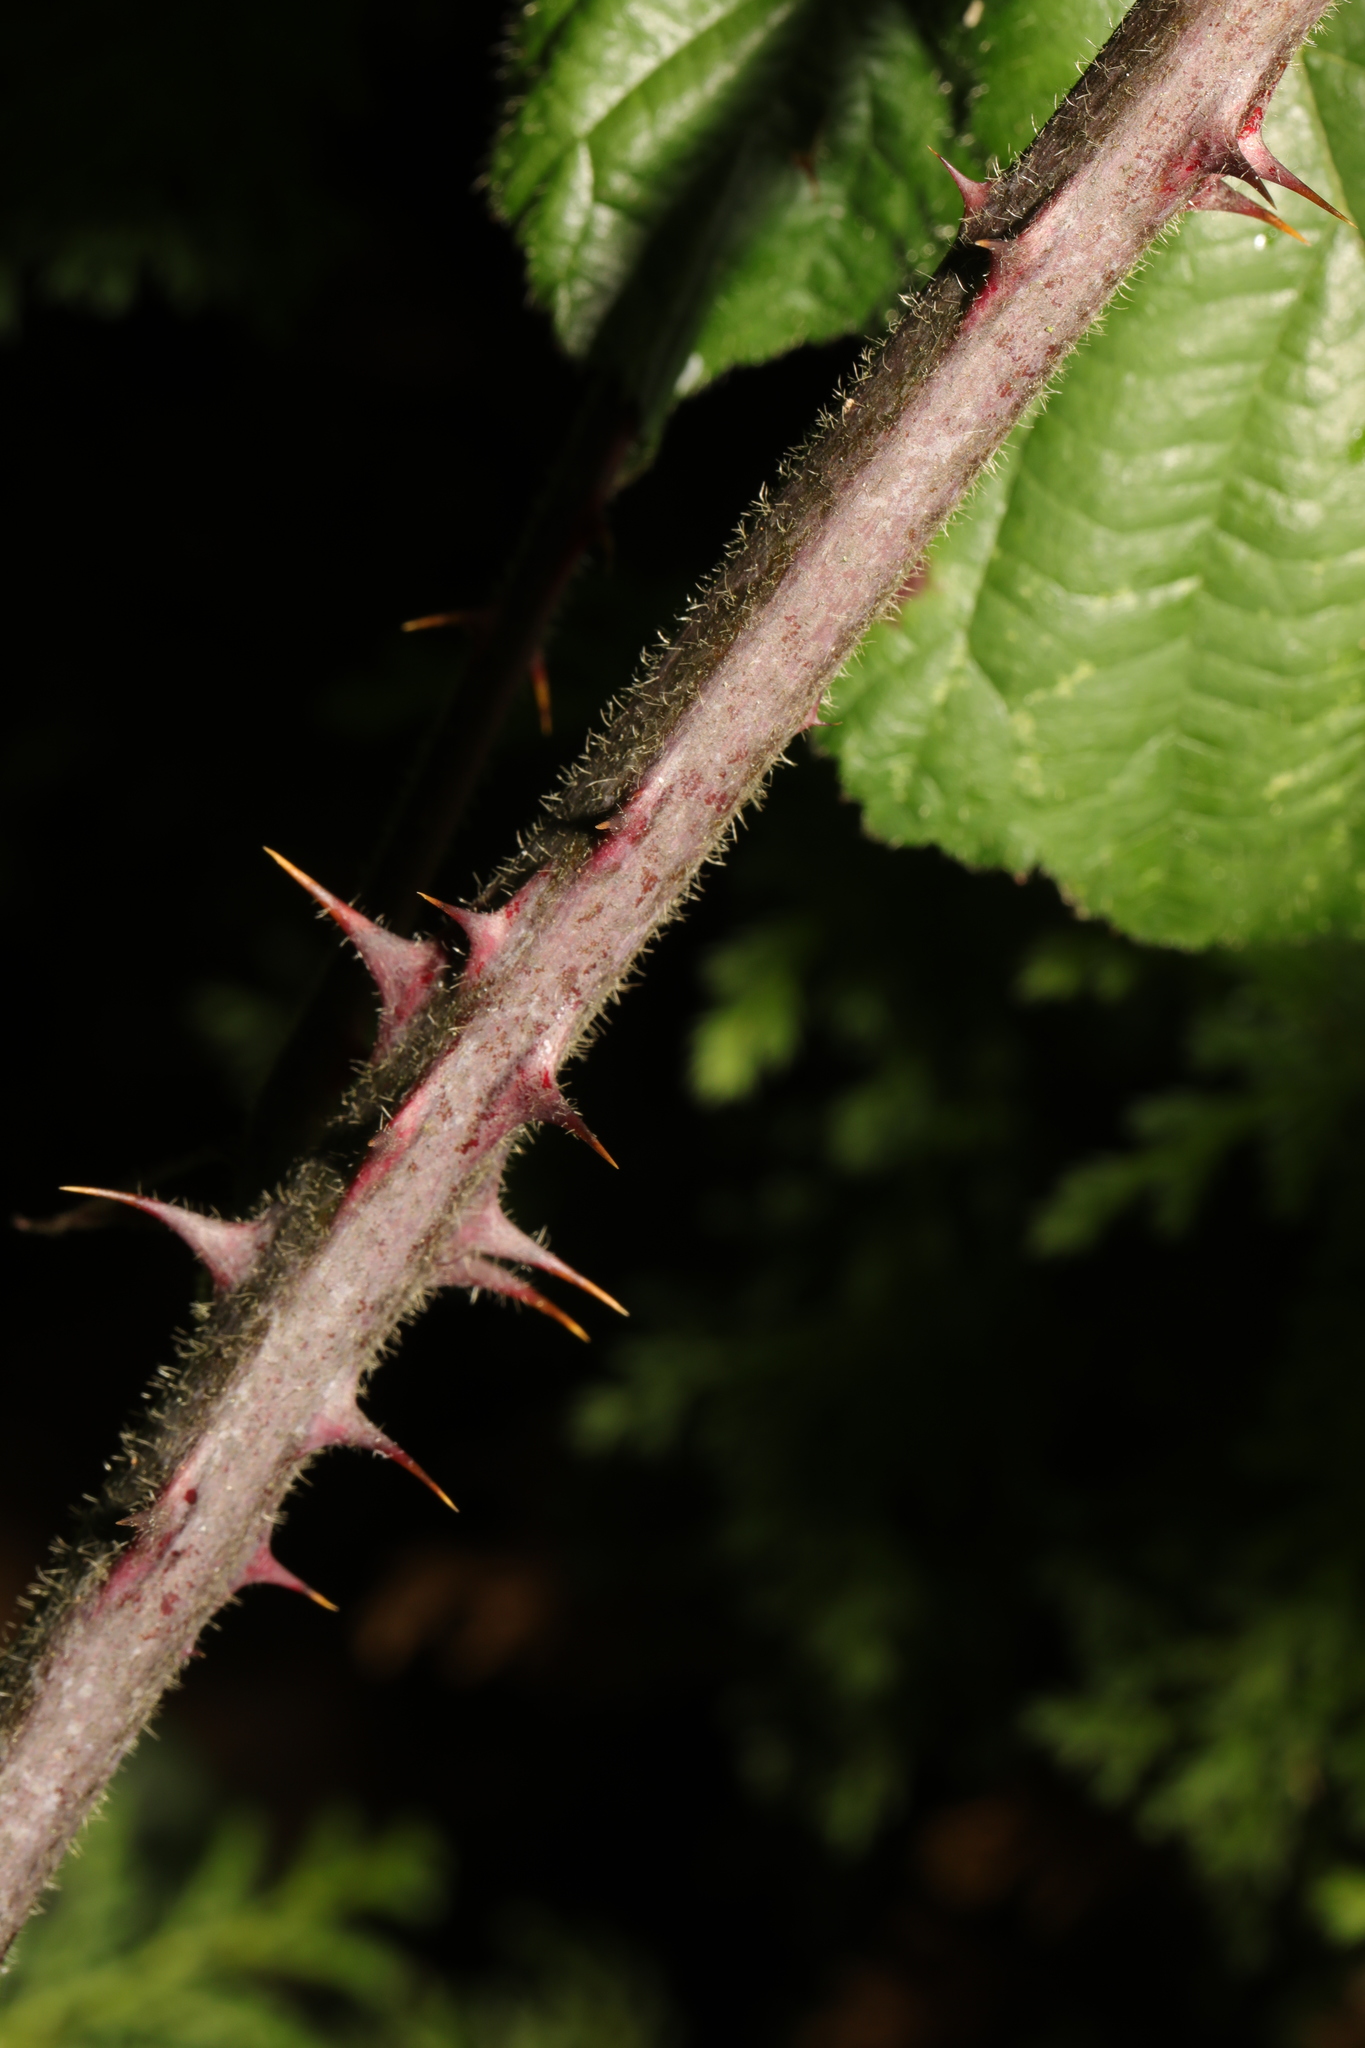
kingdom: Plantae
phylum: Tracheophyta
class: Magnoliopsida
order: Rosales
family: Rosaceae
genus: Rubus
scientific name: Rubus vestitus
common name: European blackberry
